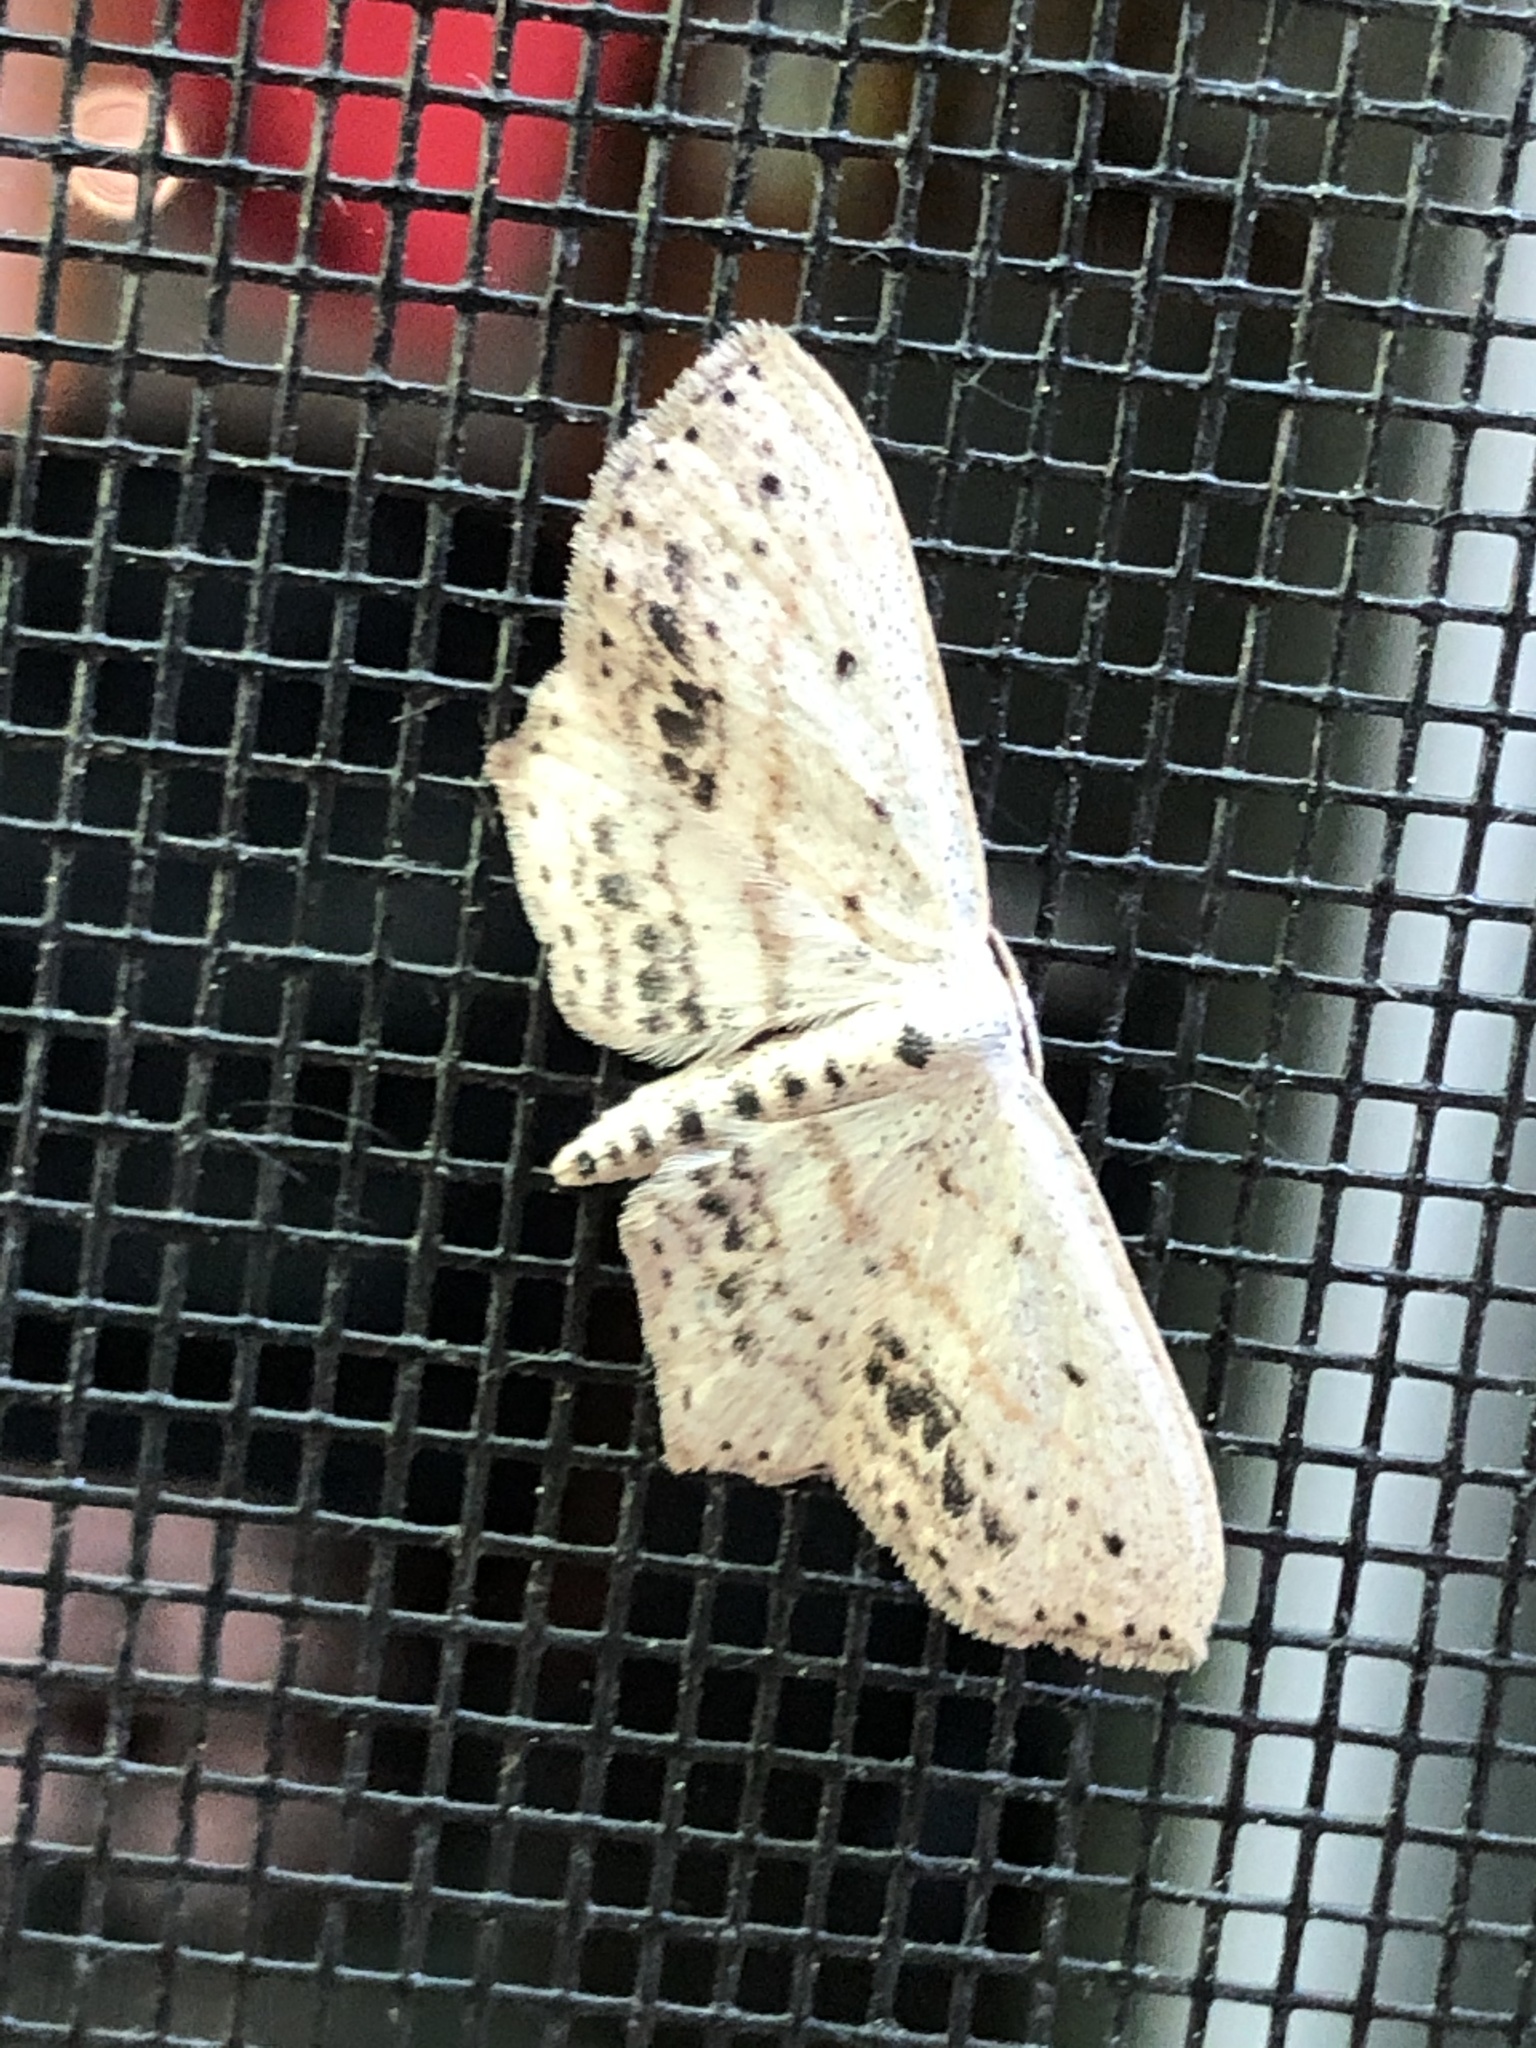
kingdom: Animalia
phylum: Arthropoda
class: Insecta
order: Lepidoptera
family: Geometridae
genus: Scopula
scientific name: Scopula cacuminaria
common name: Frosted tan wave
